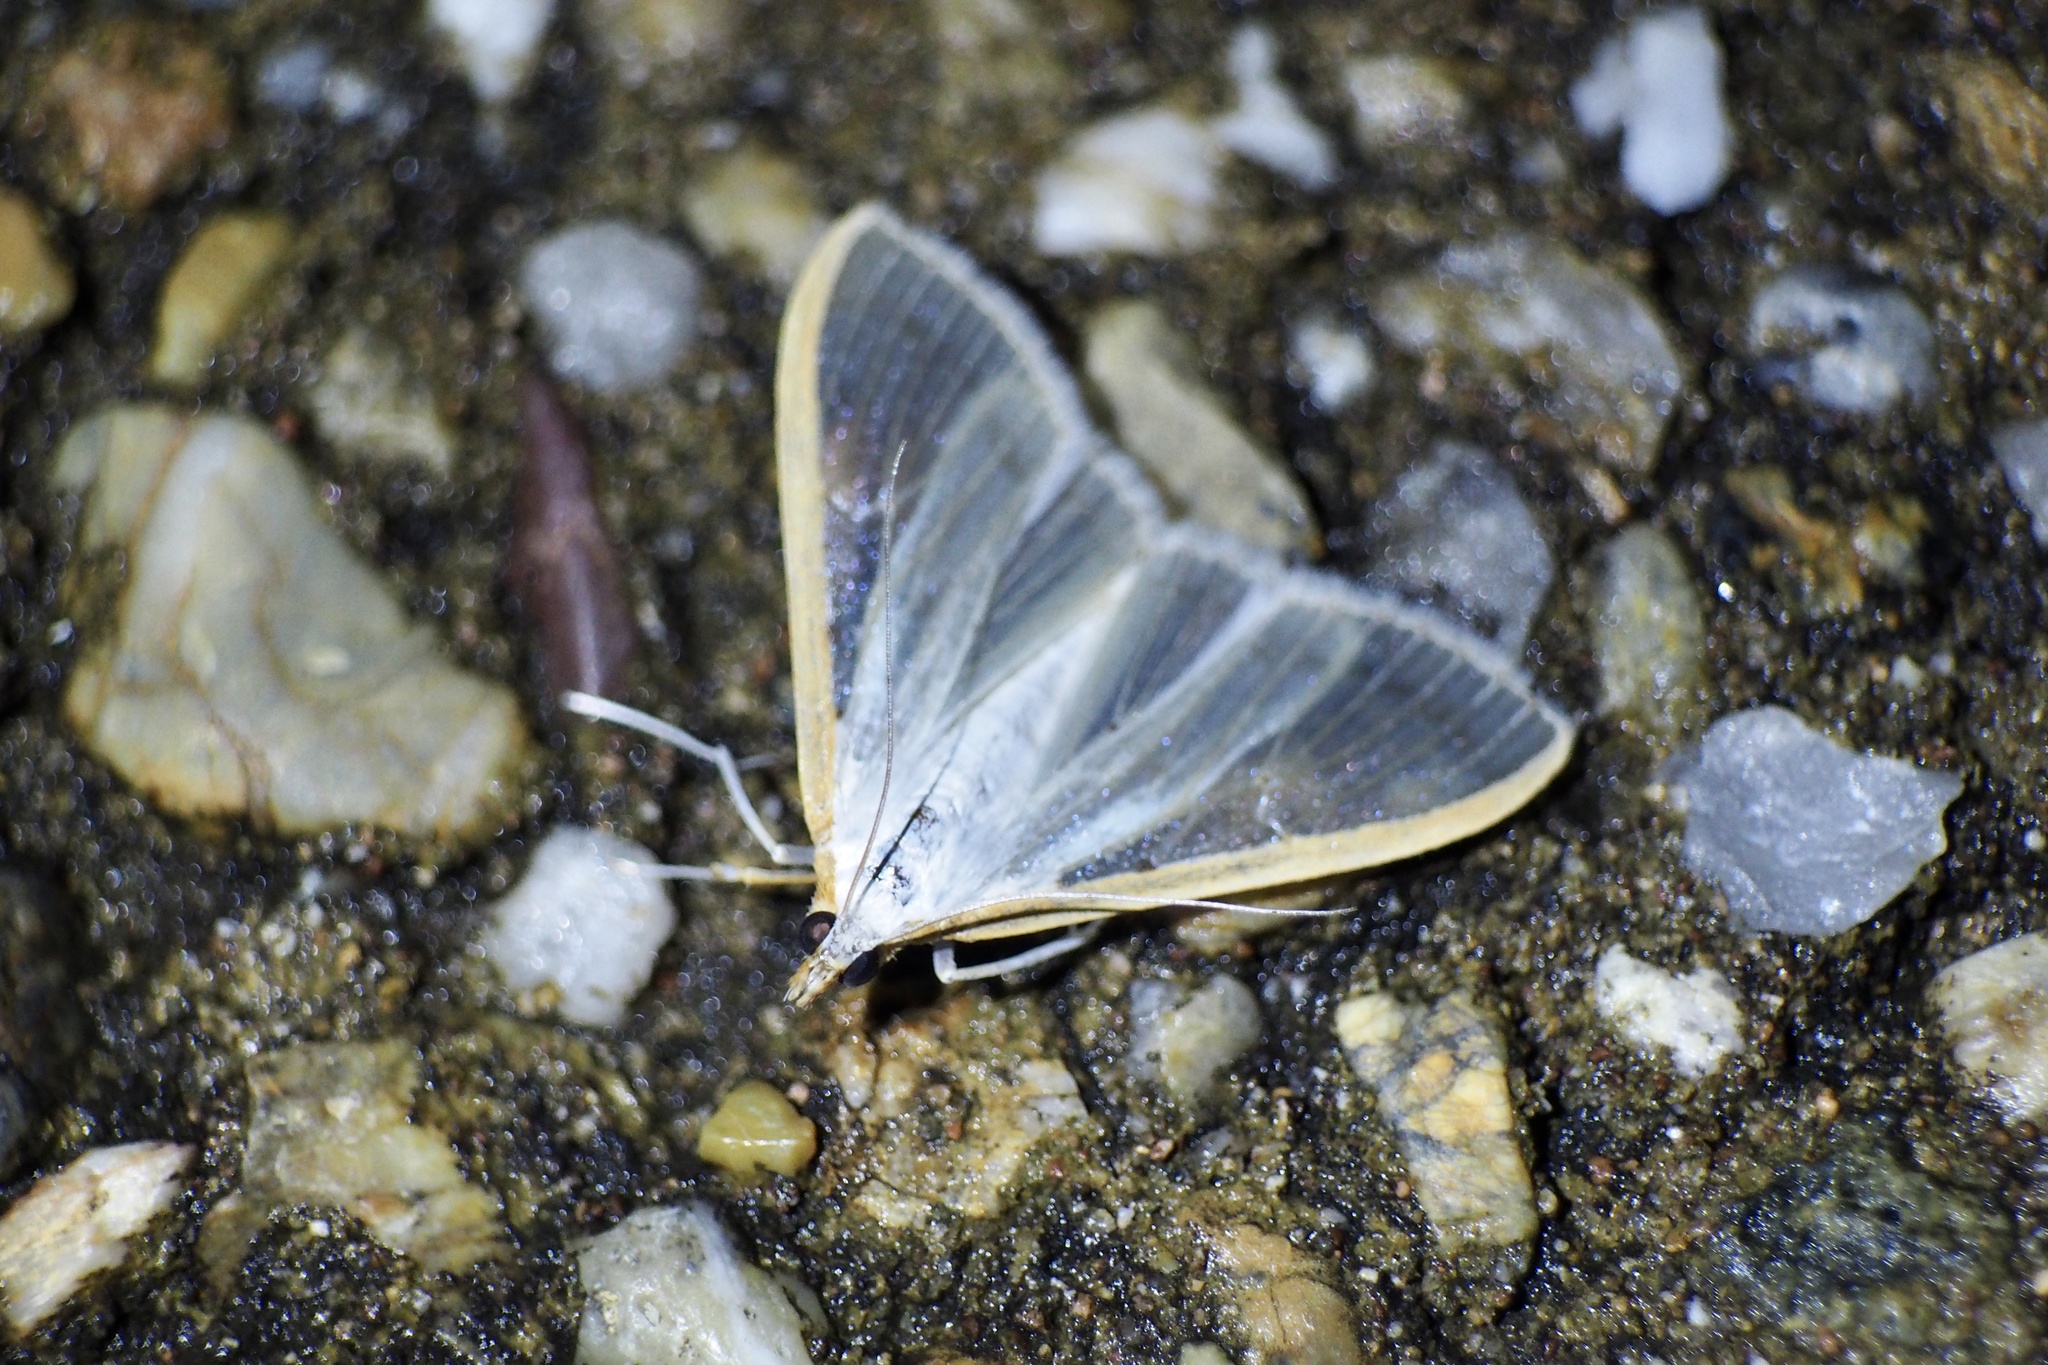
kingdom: Animalia
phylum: Arthropoda
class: Insecta
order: Lepidoptera
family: Crambidae
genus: Palpita
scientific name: Palpita nigropunctalis
